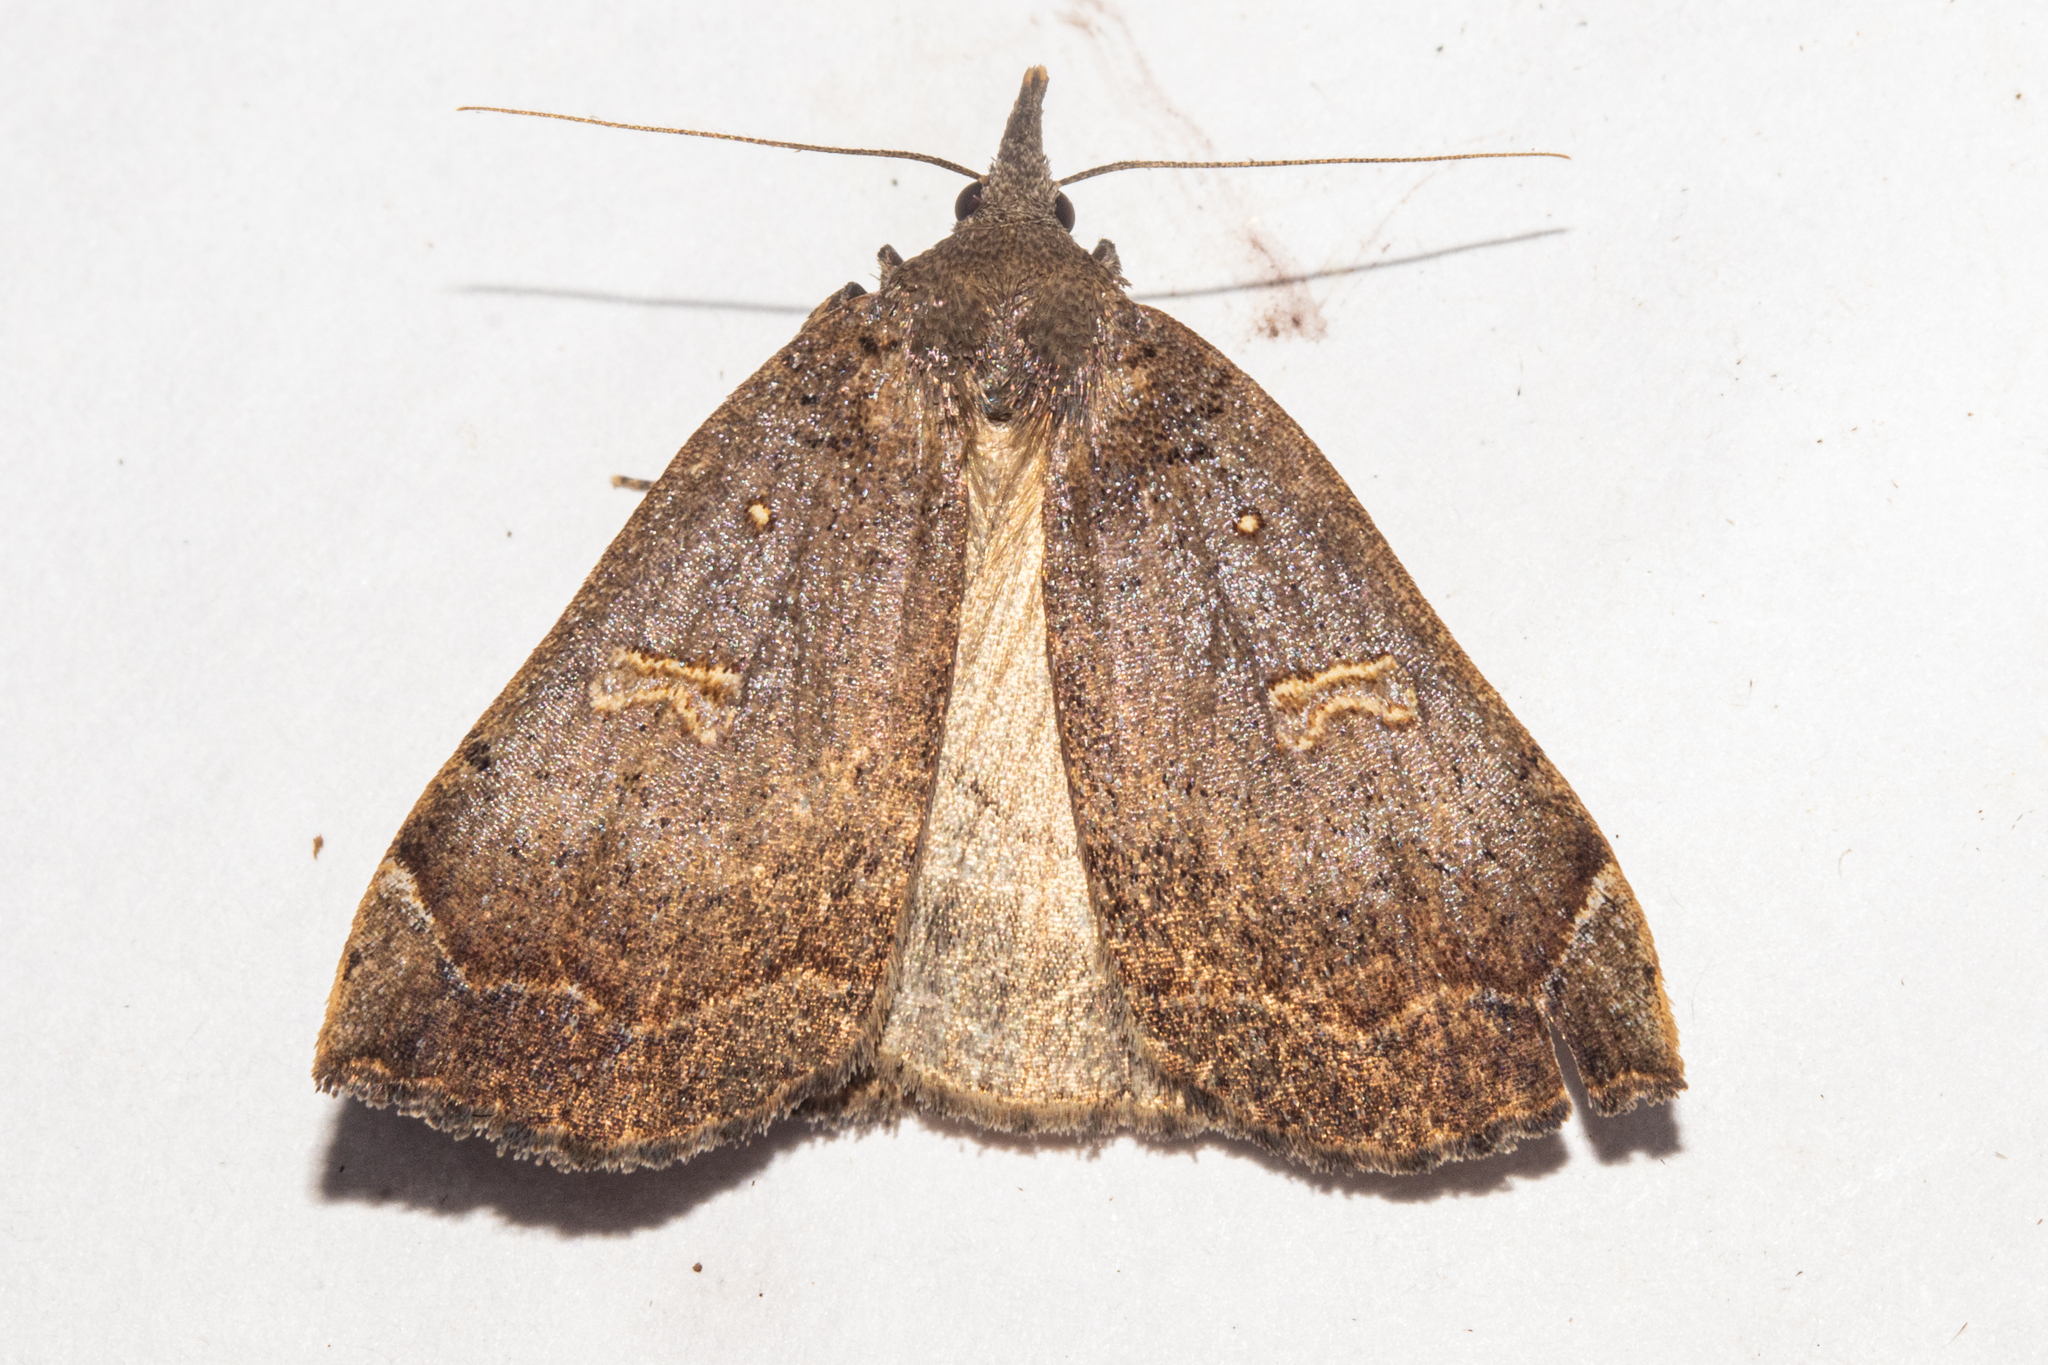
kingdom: Animalia
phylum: Arthropoda
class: Insecta
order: Lepidoptera
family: Erebidae
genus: Rhapsa
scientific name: Rhapsa scotosialis
